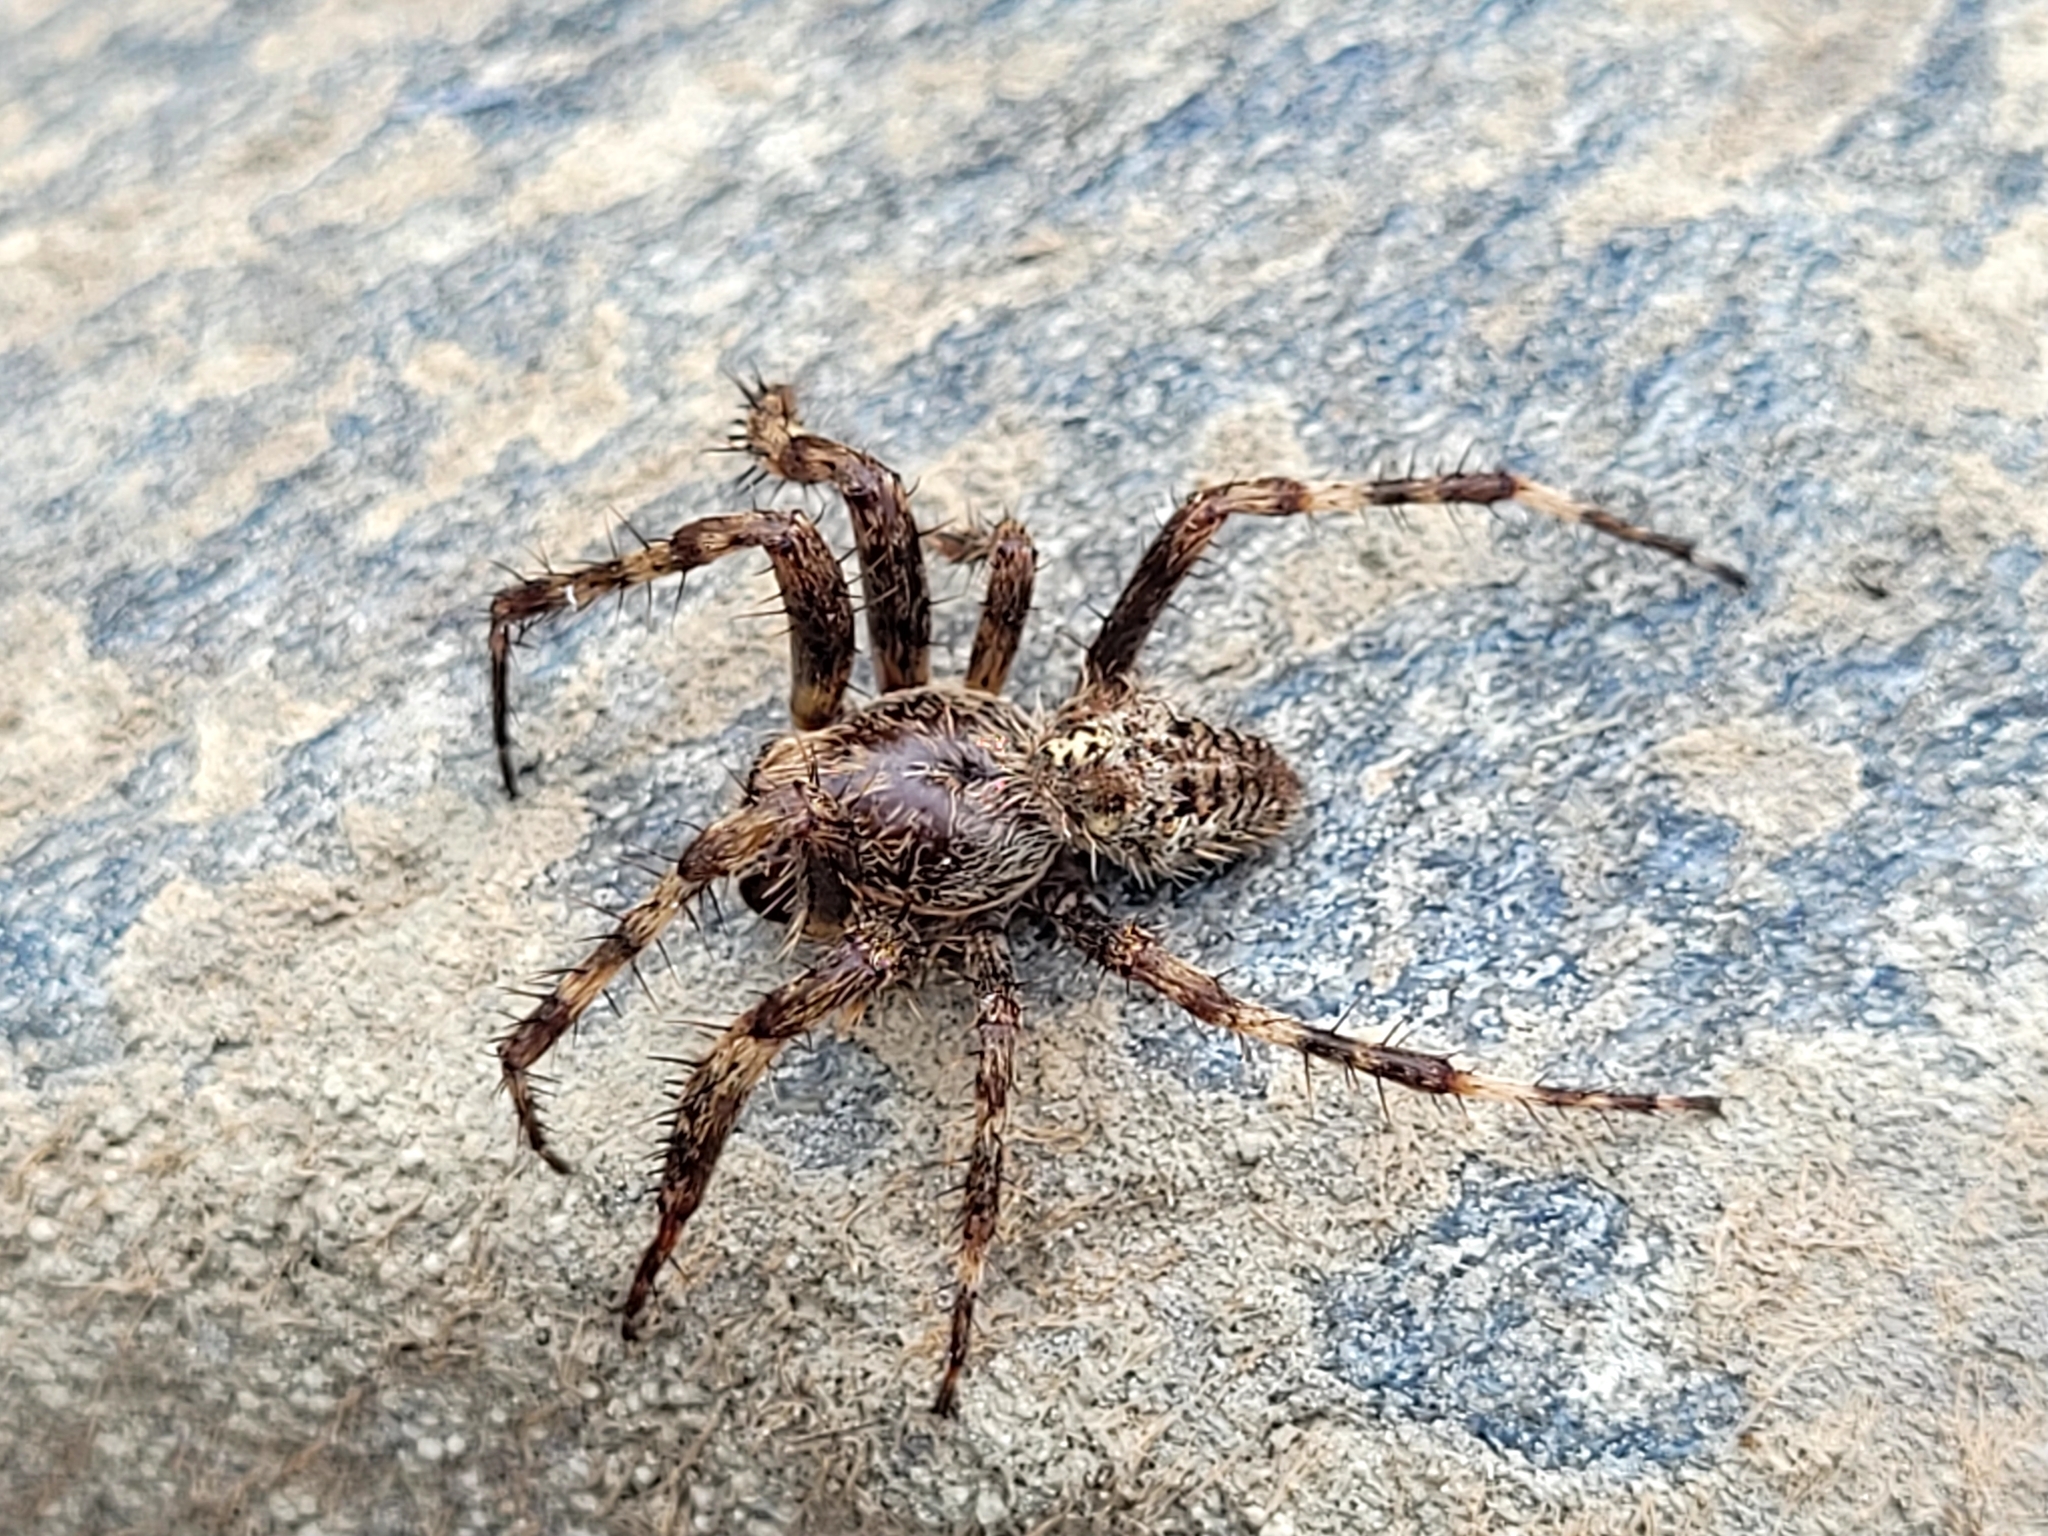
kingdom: Animalia
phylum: Arthropoda
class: Arachnida
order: Araneae
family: Araneidae
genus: Araneus
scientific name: Araneus saevus
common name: Fierce orbweaver
